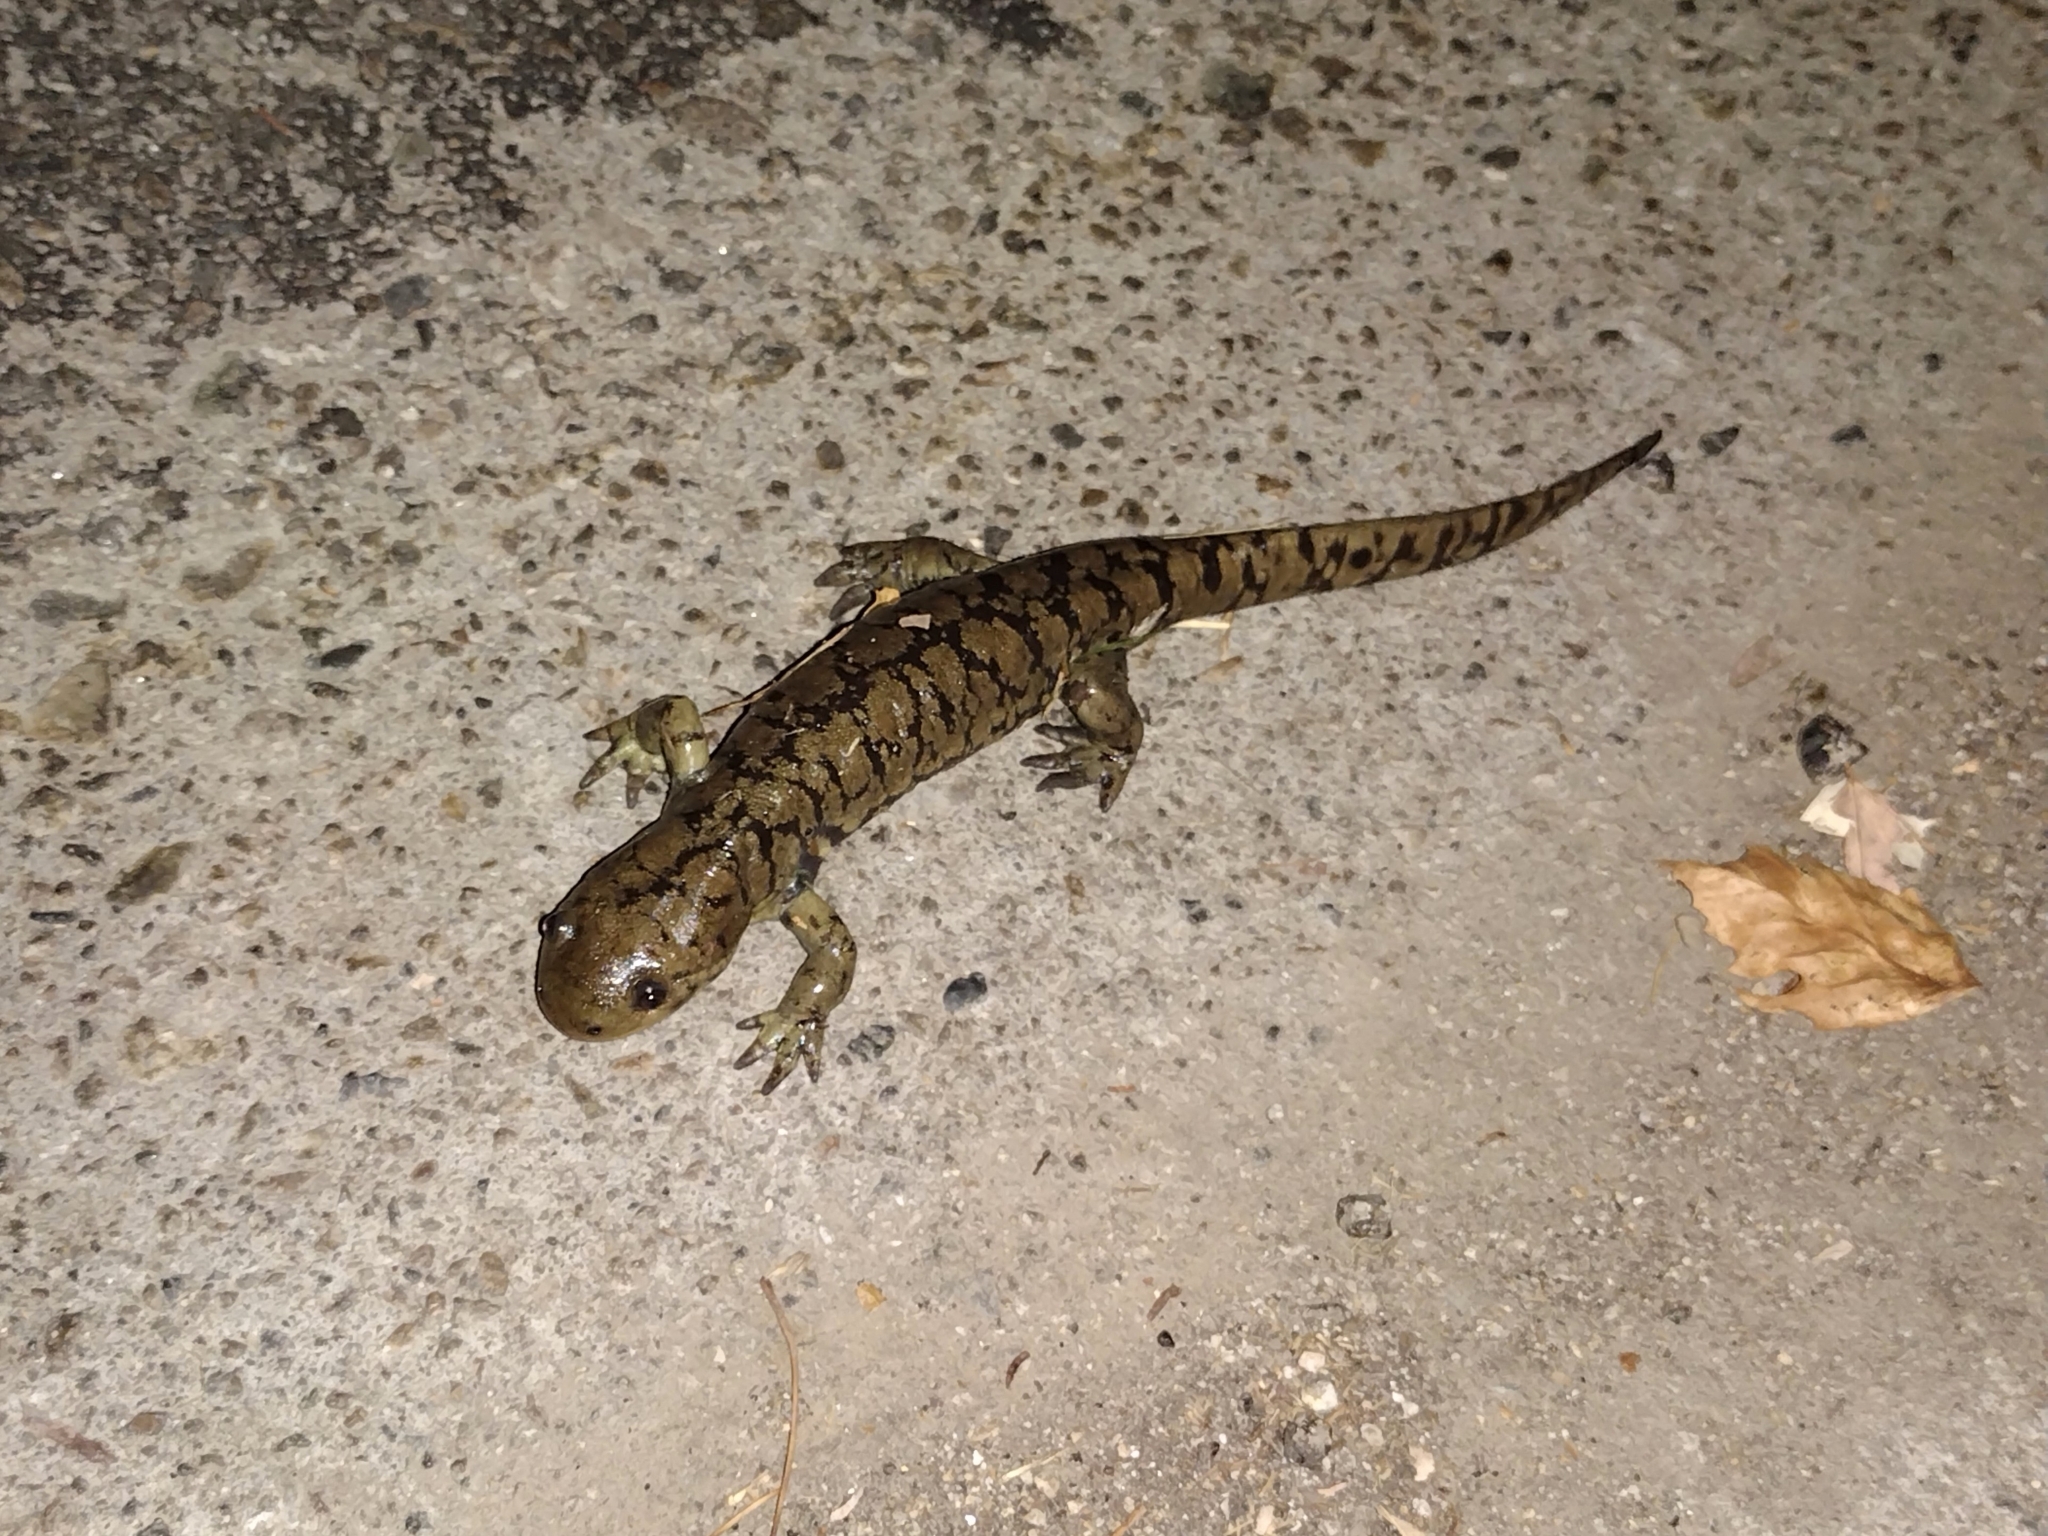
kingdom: Animalia
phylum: Chordata
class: Amphibia
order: Caudata
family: Ambystomatidae
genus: Ambystoma
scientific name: Ambystoma mavortium
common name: Western tiger salamander
